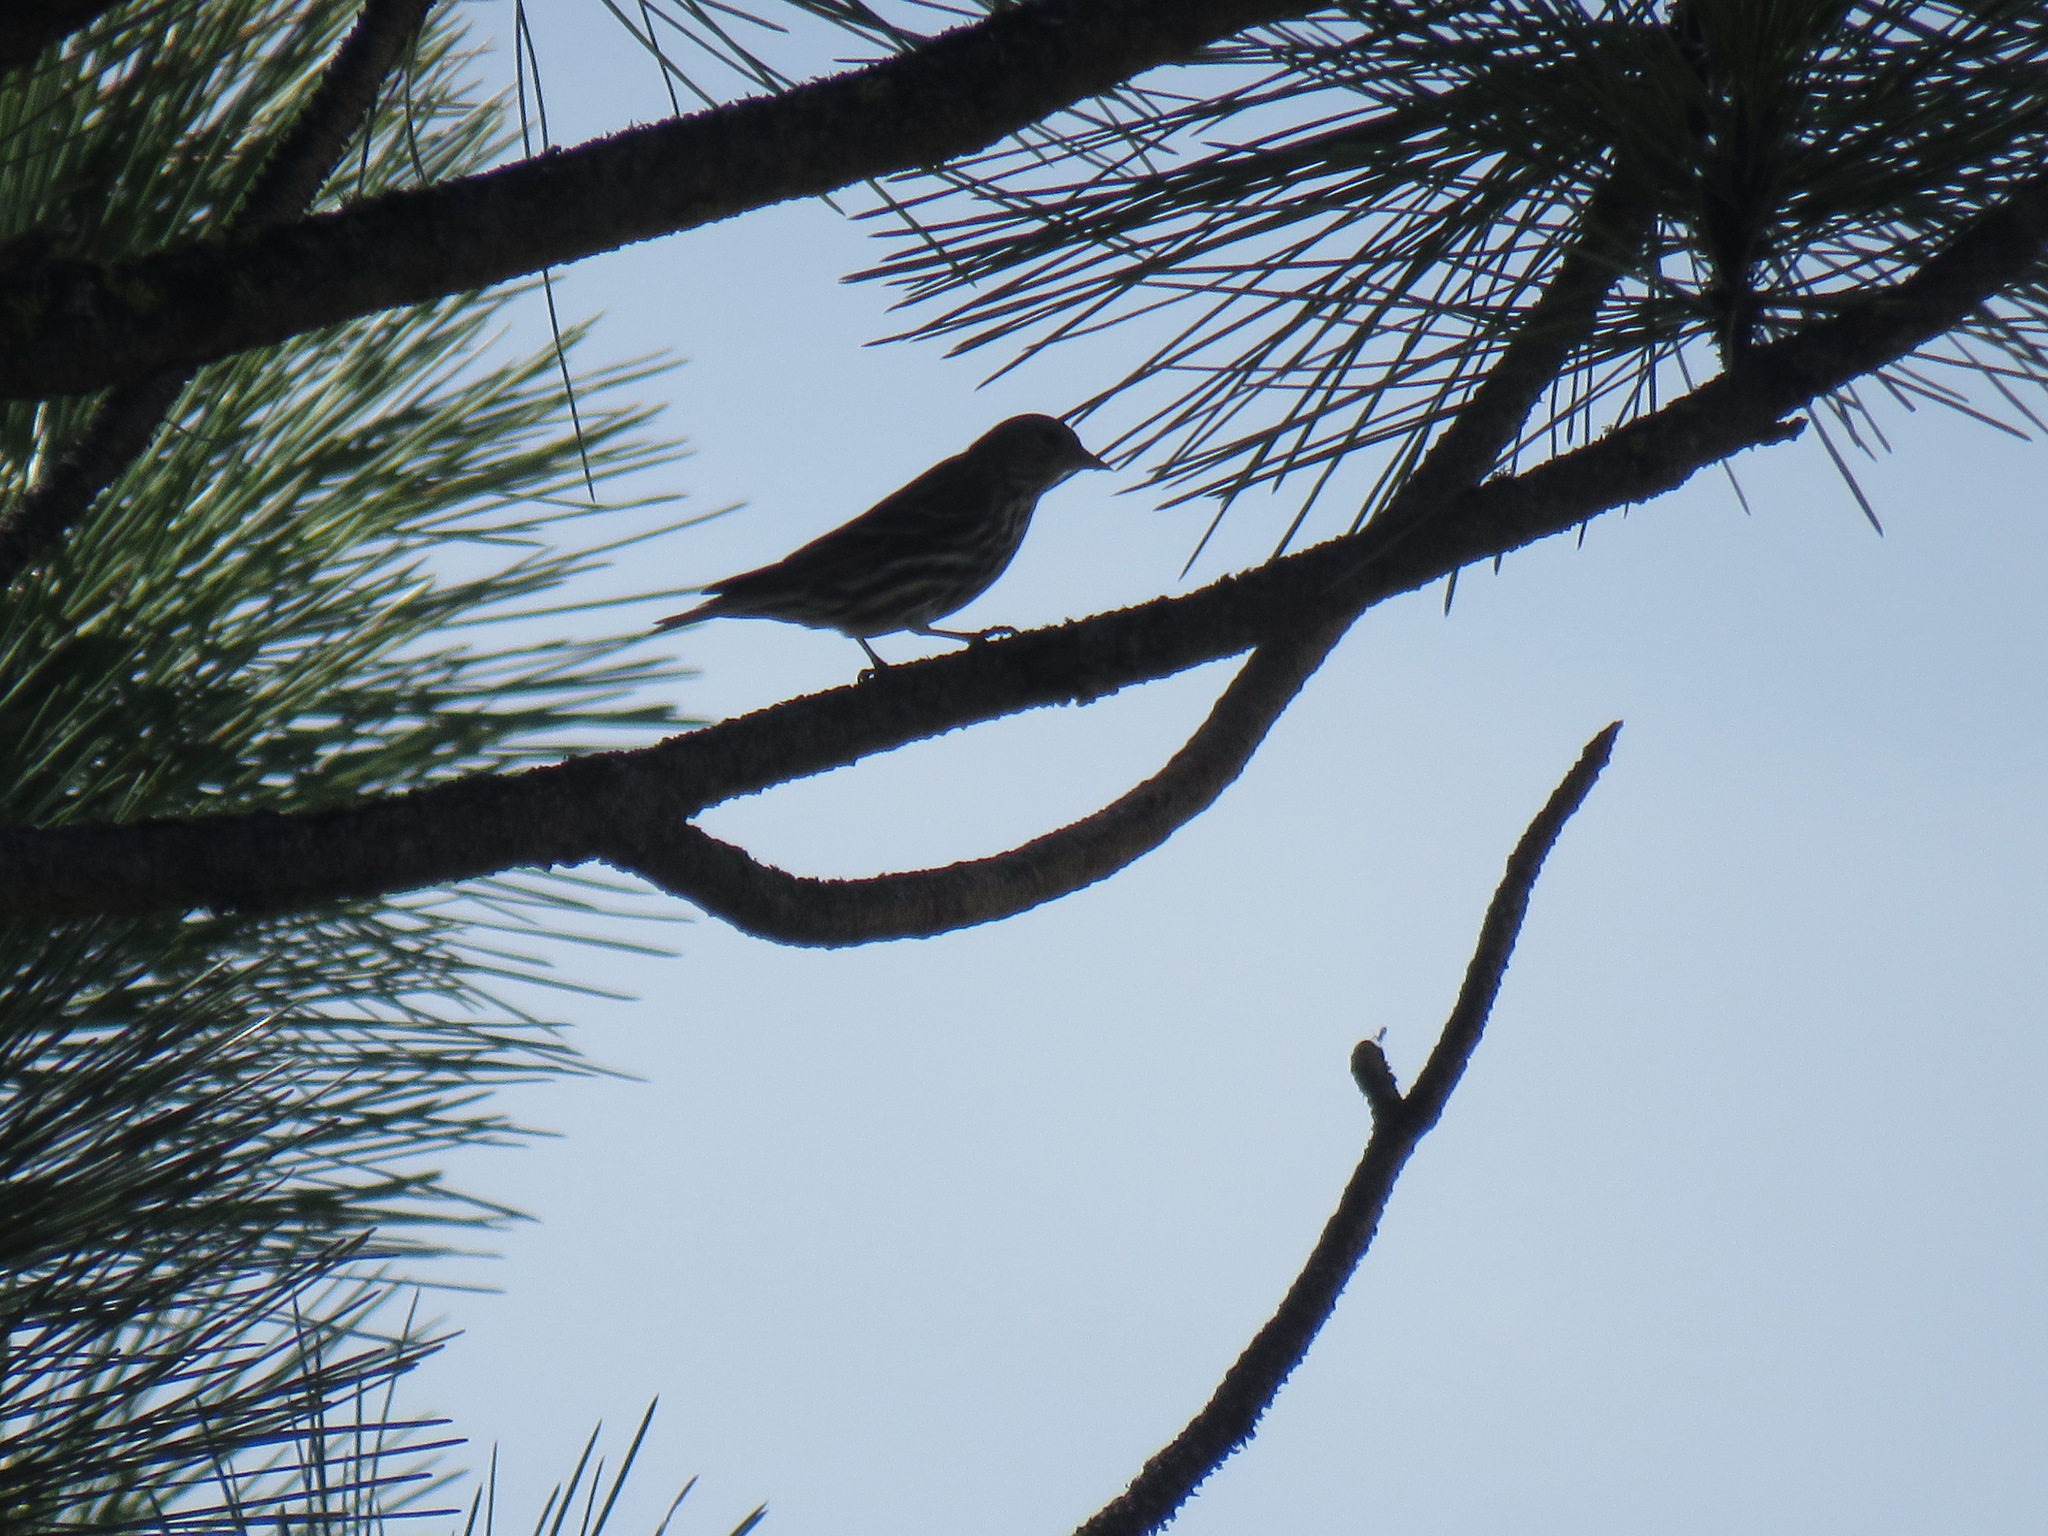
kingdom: Animalia
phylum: Chordata
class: Aves
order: Passeriformes
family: Fringillidae
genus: Spinus
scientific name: Spinus pinus
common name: Pine siskin
